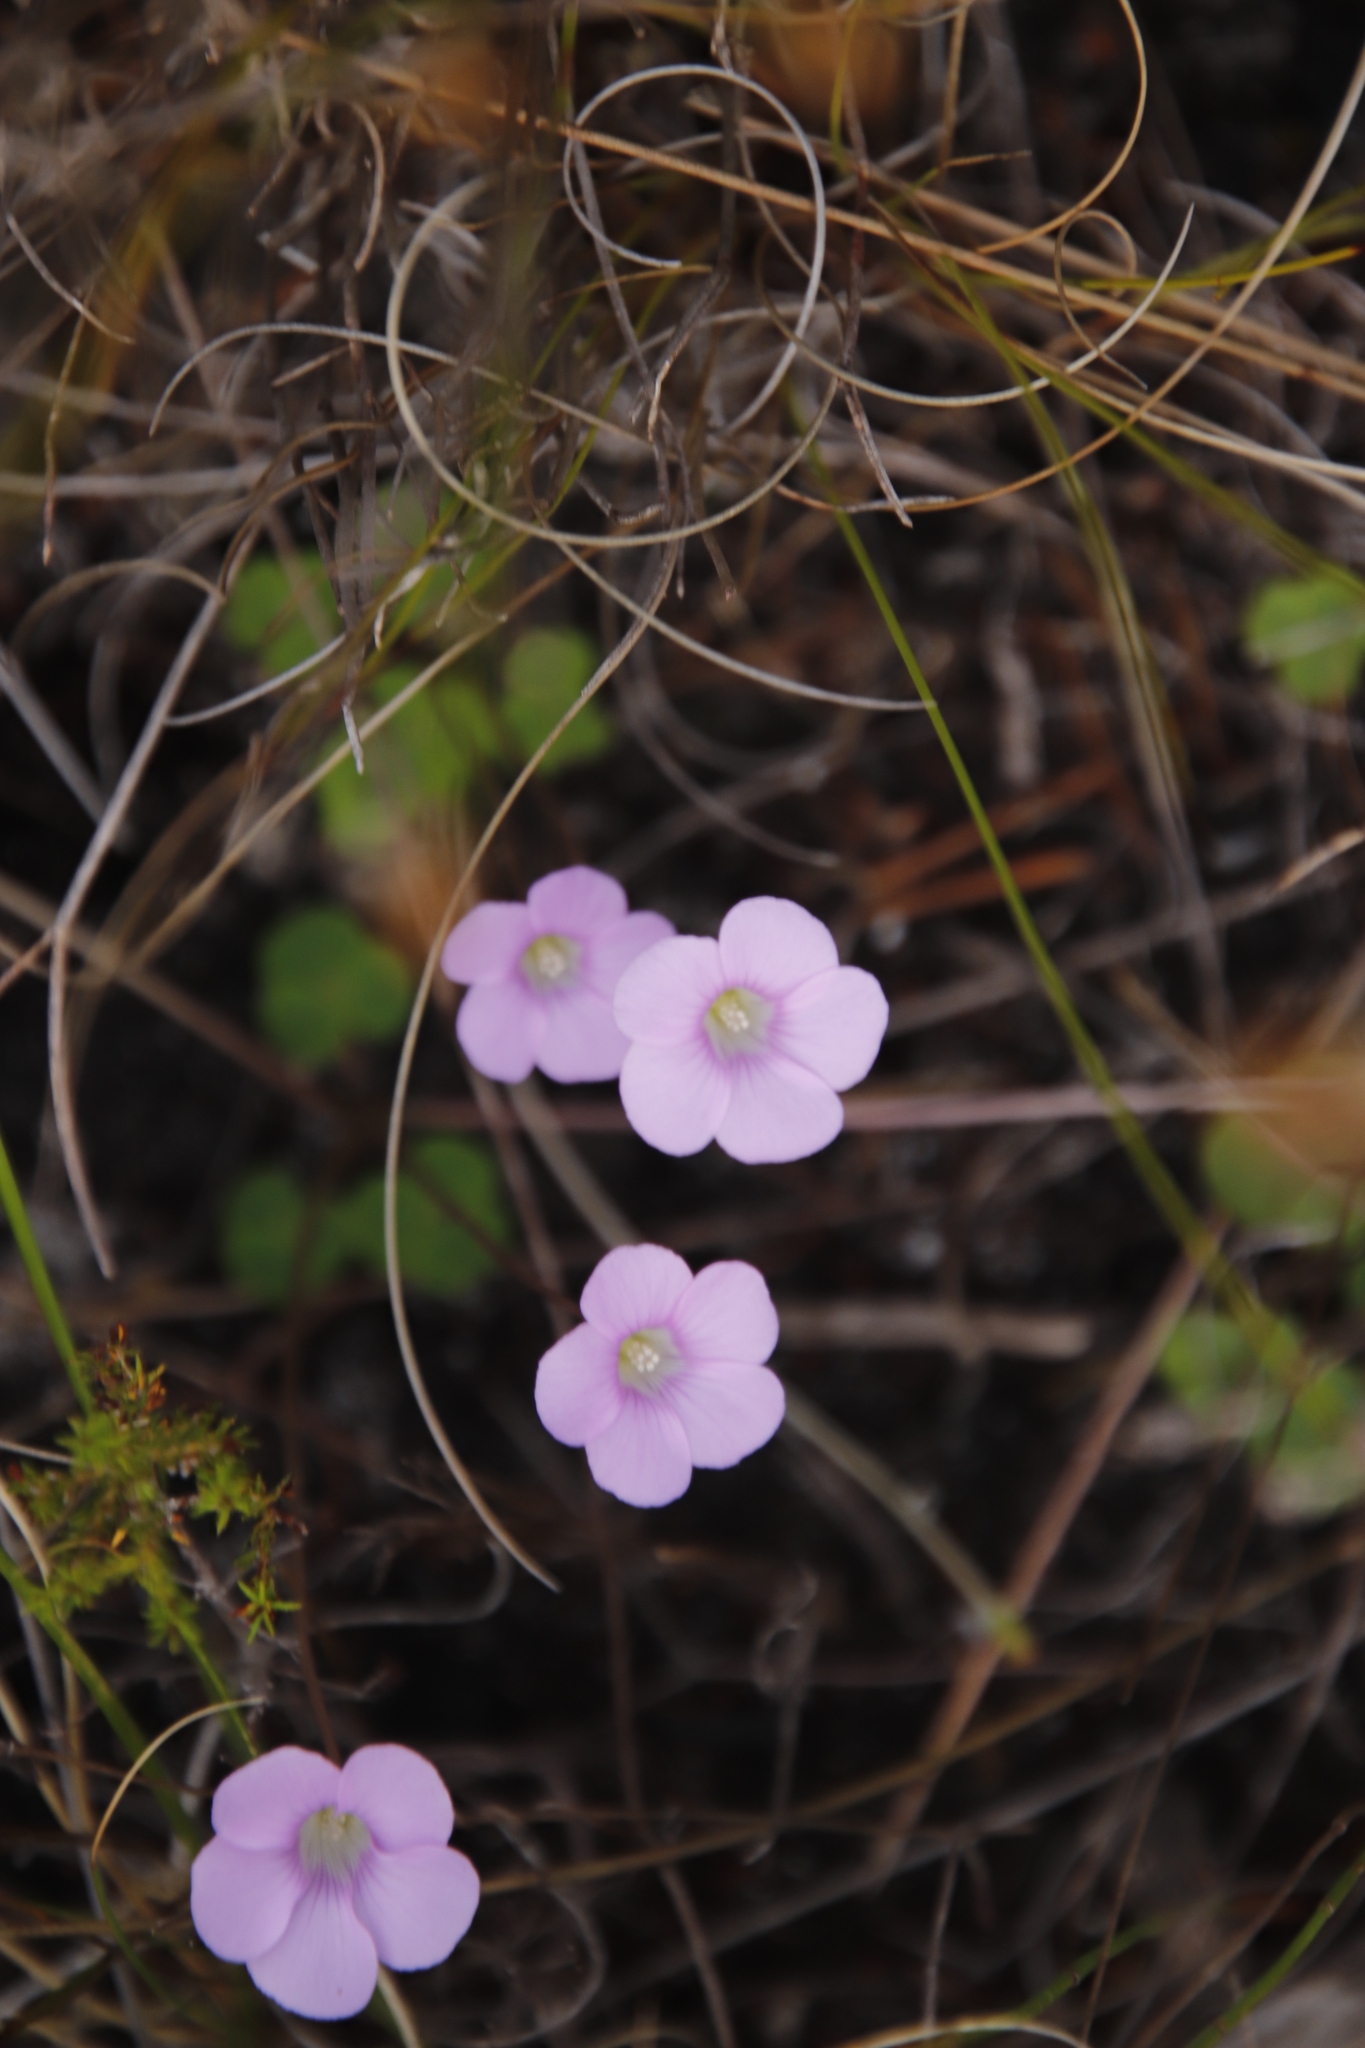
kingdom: Plantae
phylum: Tracheophyta
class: Magnoliopsida
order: Oxalidales
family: Oxalidaceae
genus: Oxalis
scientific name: Oxalis commutata
